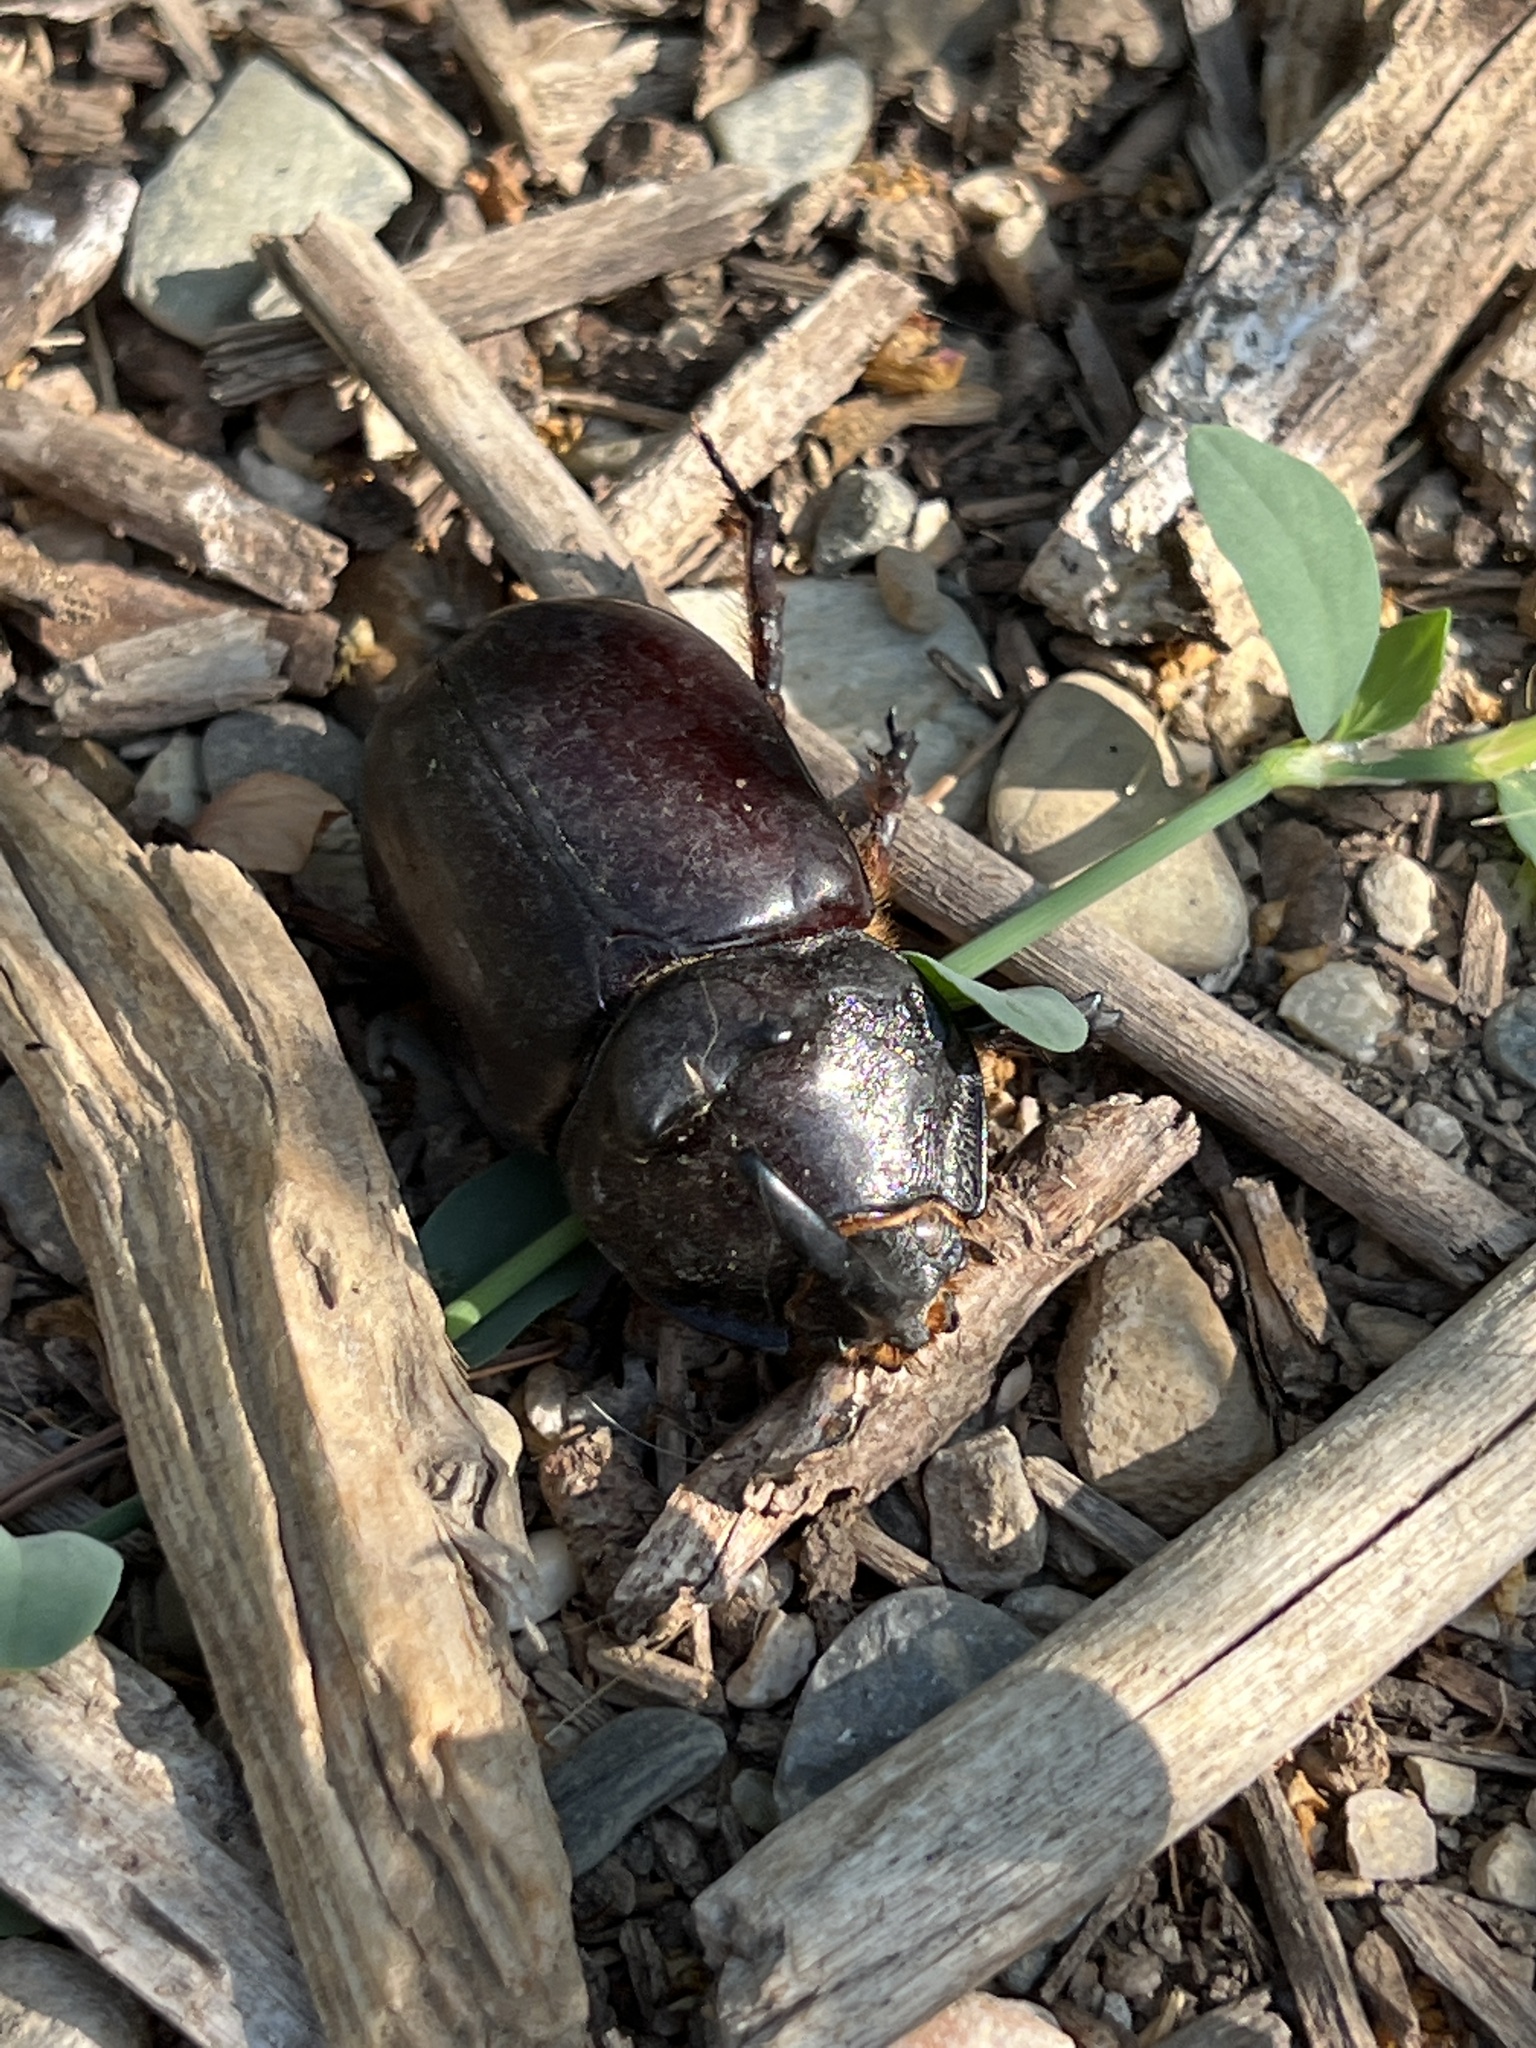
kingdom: Animalia
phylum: Arthropoda
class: Insecta
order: Coleoptera
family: Scarabaeidae
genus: Oryctes
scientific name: Oryctes nasicornis
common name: European rhinoceros beetle
